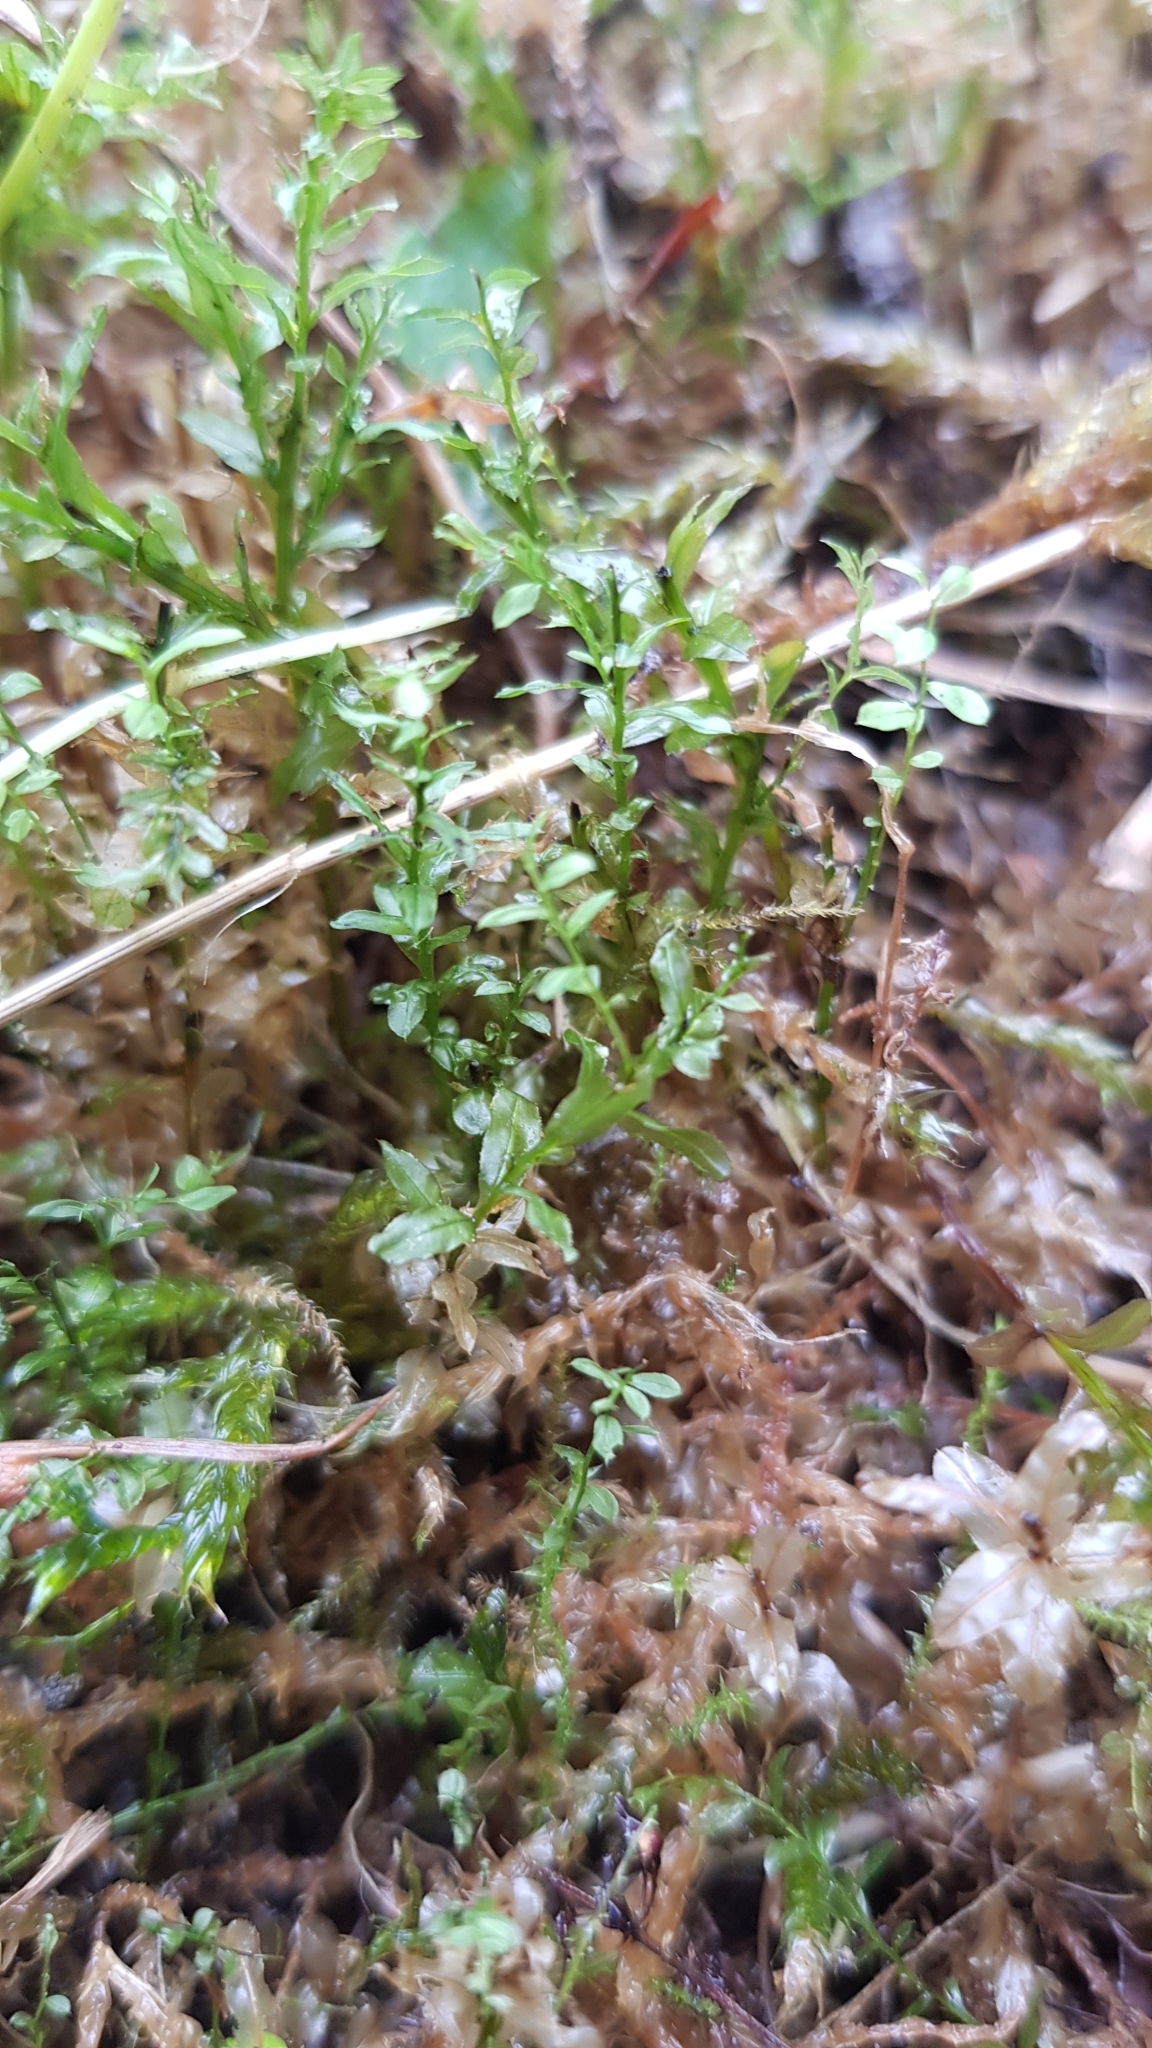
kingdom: Plantae
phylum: Bryophyta
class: Bryopsida
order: Bryales
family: Mniaceae
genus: Plagiomnium
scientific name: Plagiomnium undulatum
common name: Hart's-tongue thyme-moss
